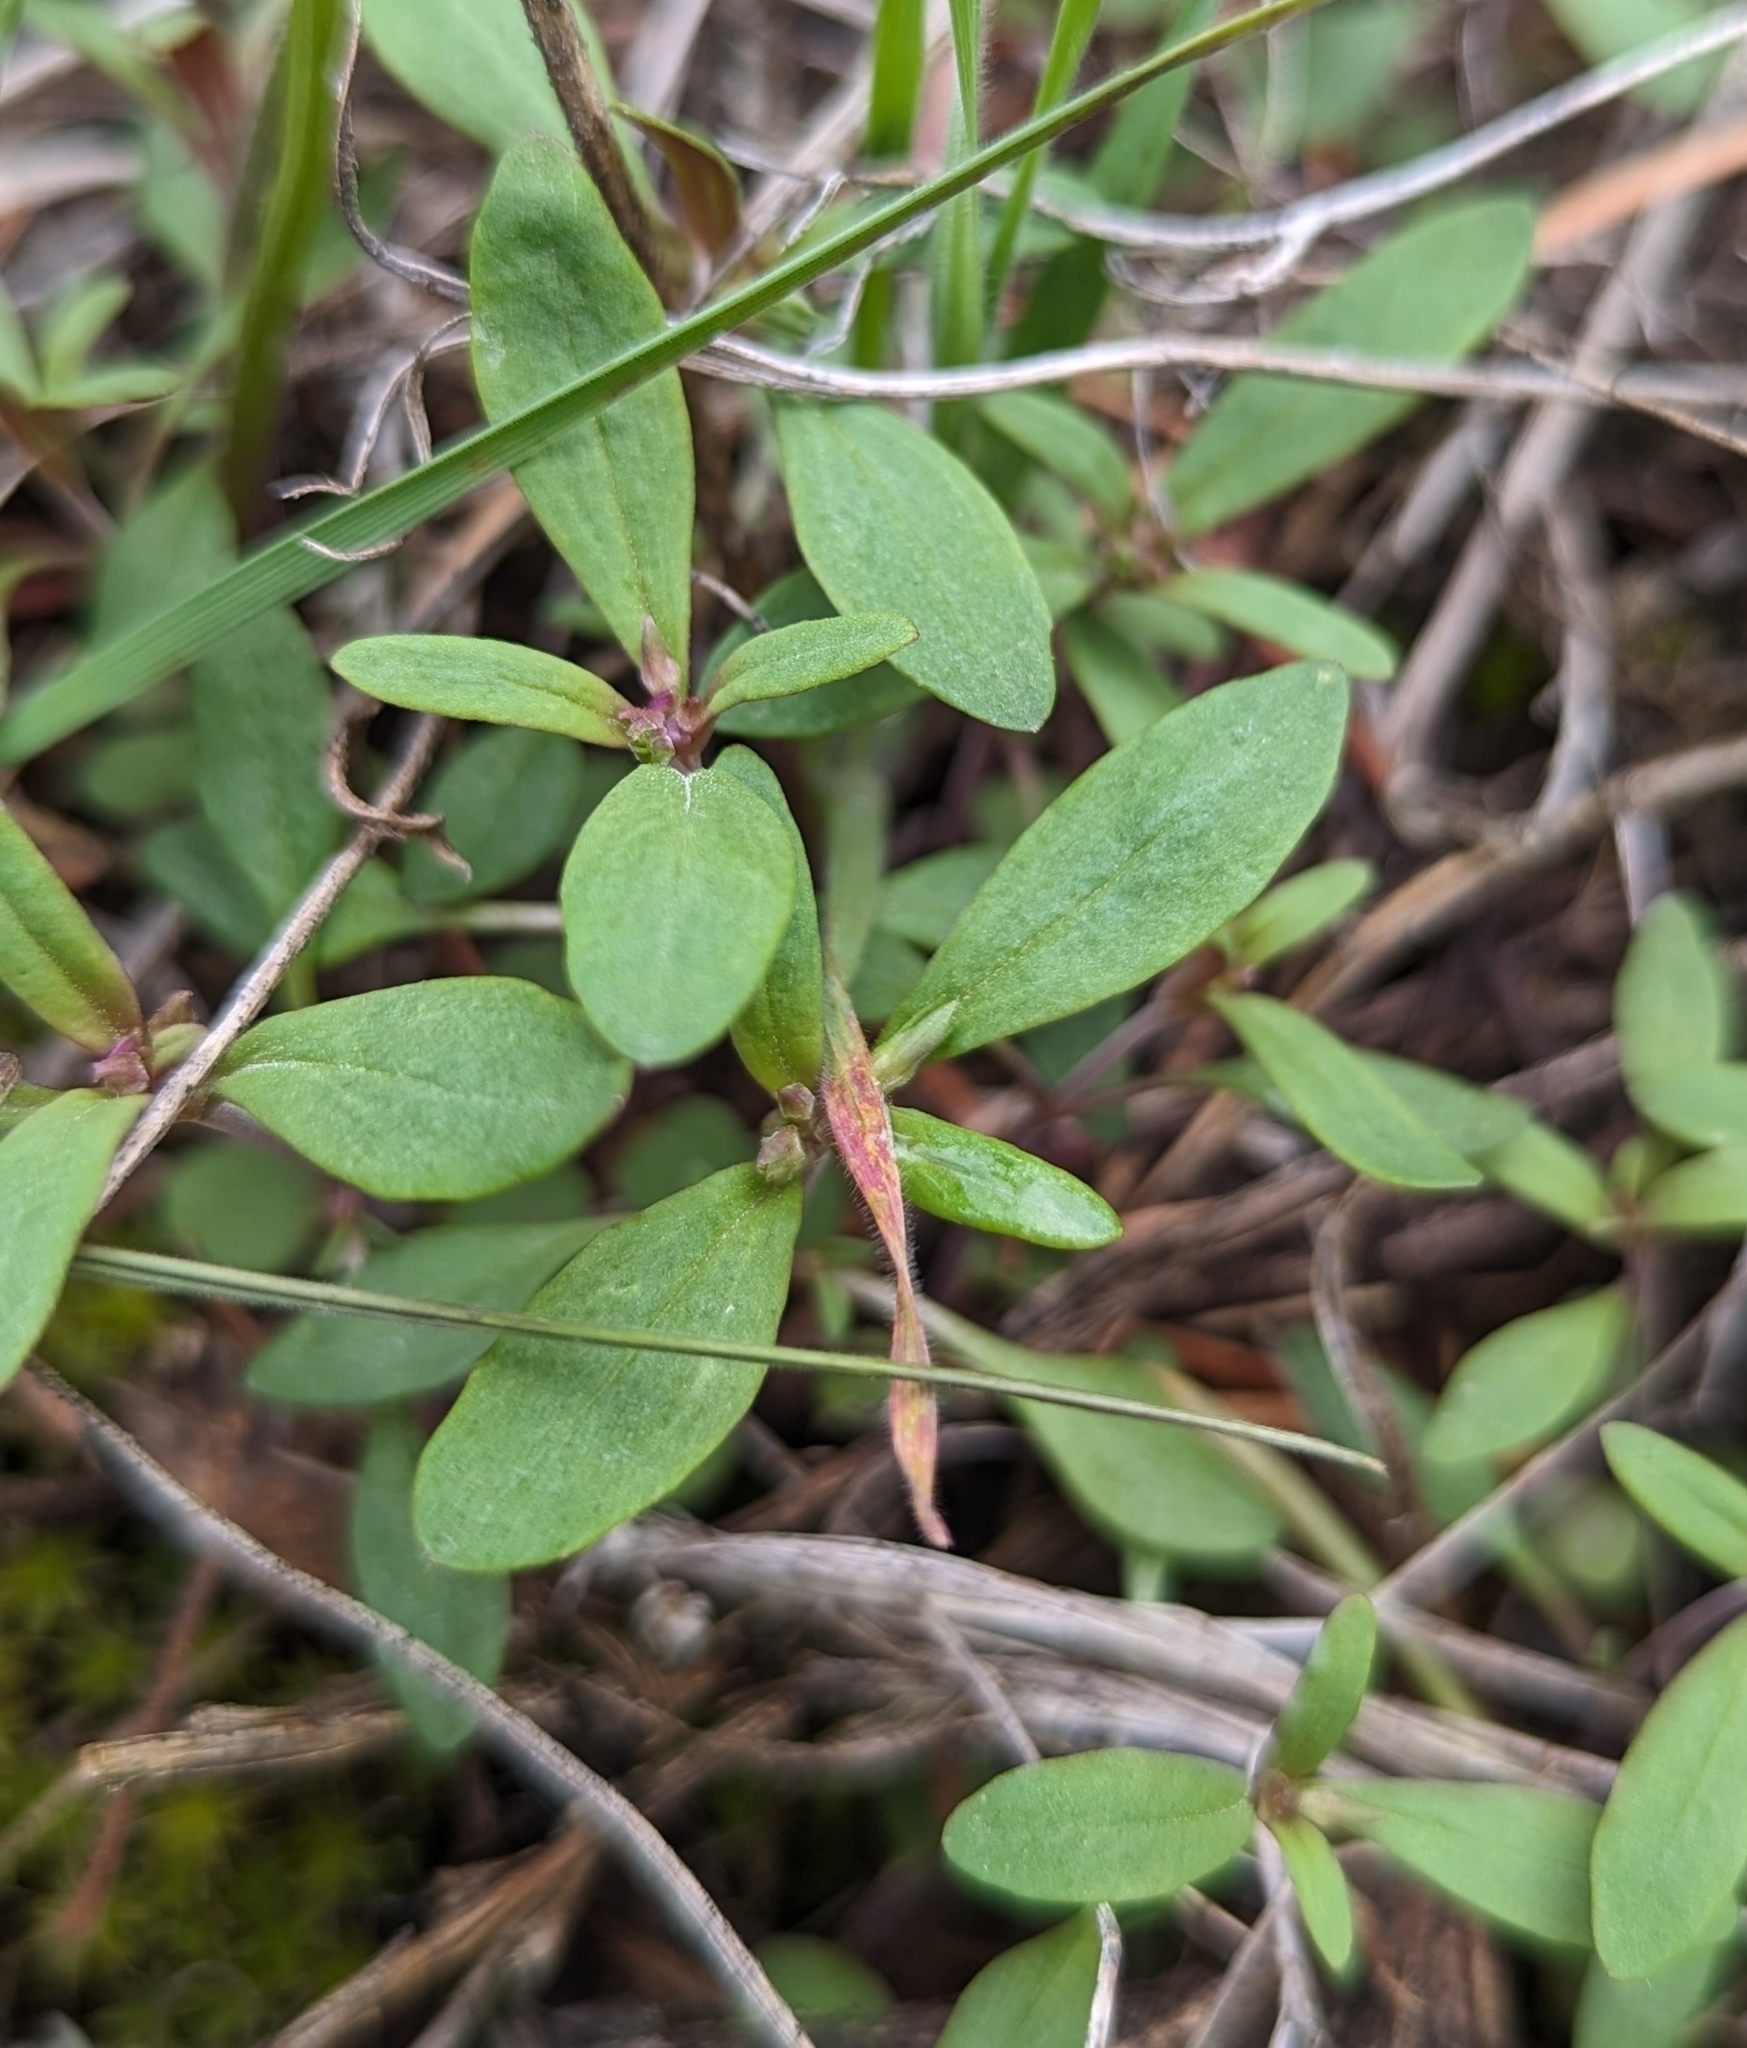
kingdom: Plantae
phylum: Tracheophyta
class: Magnoliopsida
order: Lamiales
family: Plantaginaceae
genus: Collinsia
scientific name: Collinsia parviflora
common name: Blue-lips
